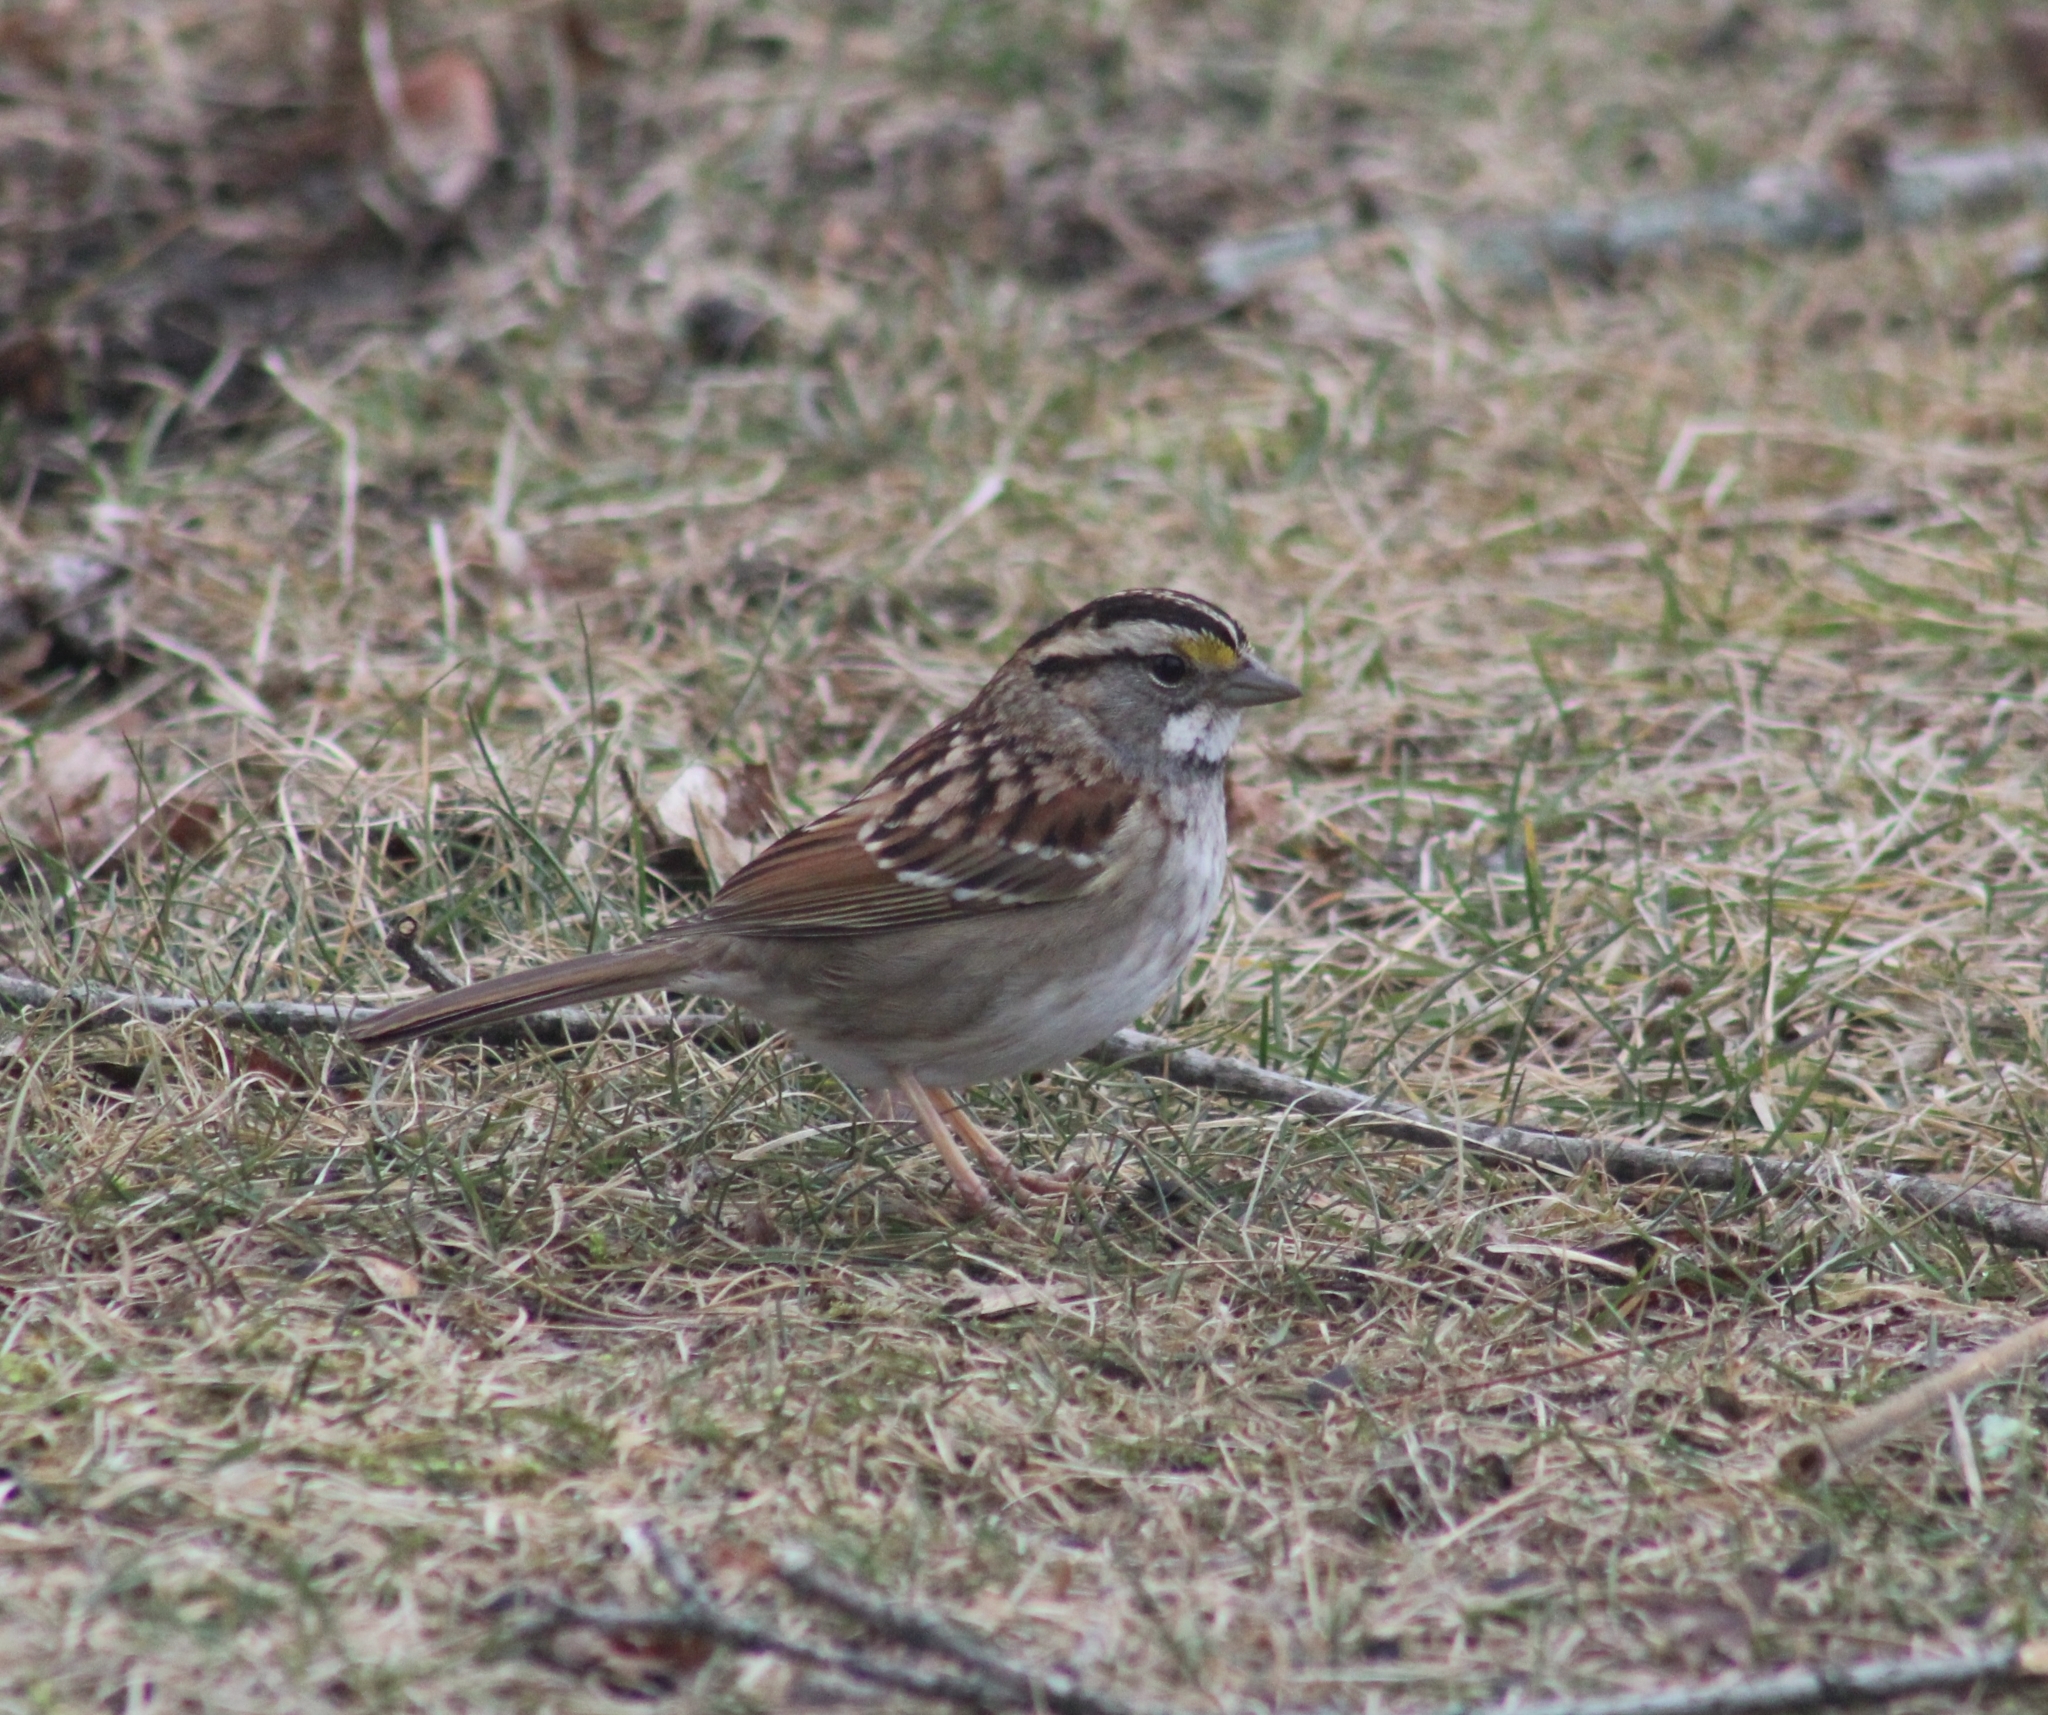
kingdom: Animalia
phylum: Chordata
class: Aves
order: Passeriformes
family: Passerellidae
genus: Zonotrichia
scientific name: Zonotrichia albicollis
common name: White-throated sparrow
